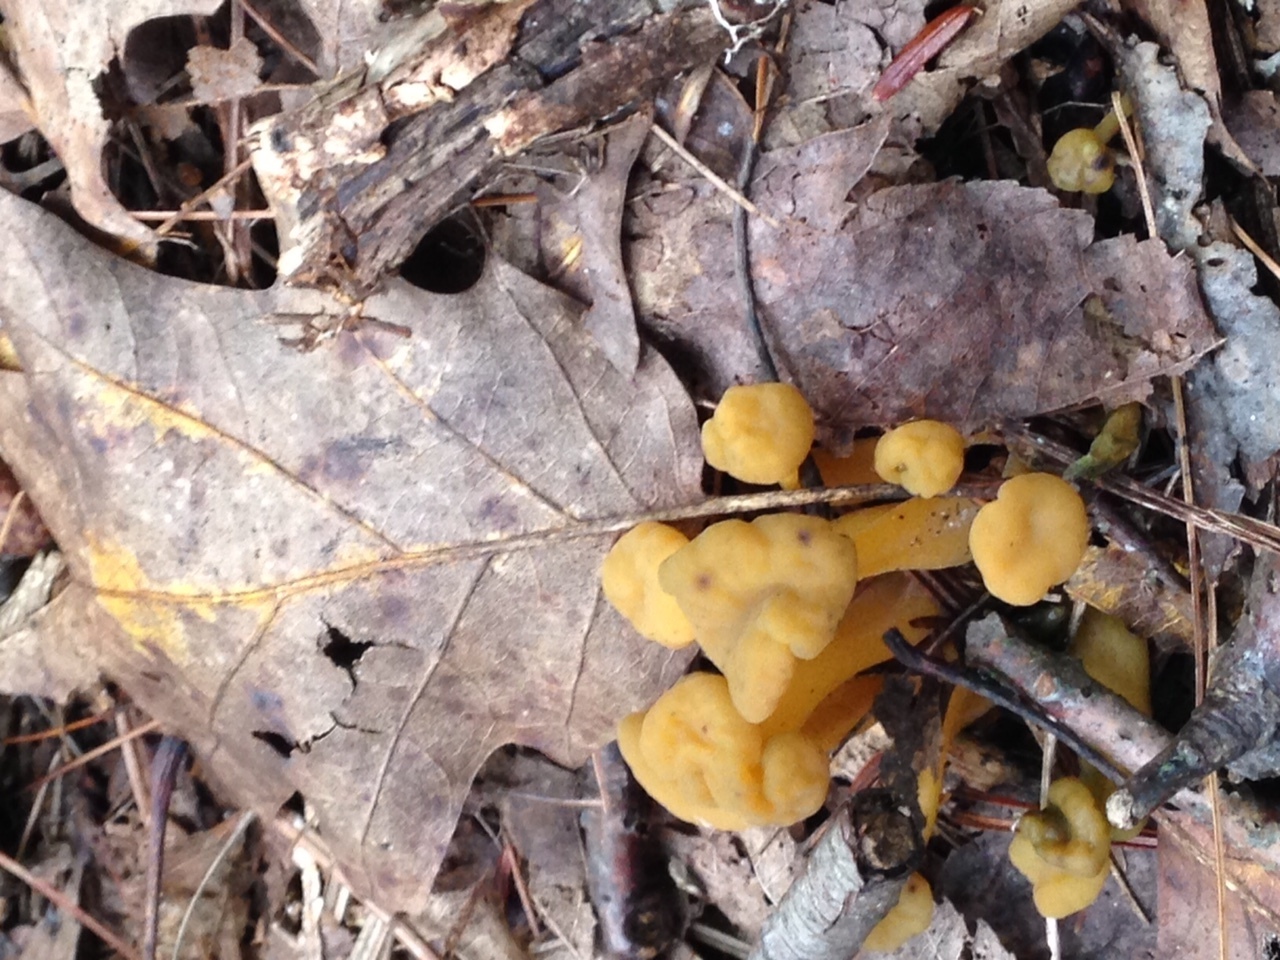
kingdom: Fungi
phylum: Ascomycota
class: Leotiomycetes
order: Leotiales
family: Leotiaceae
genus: Leotia
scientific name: Leotia lubrica
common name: Jellybaby
